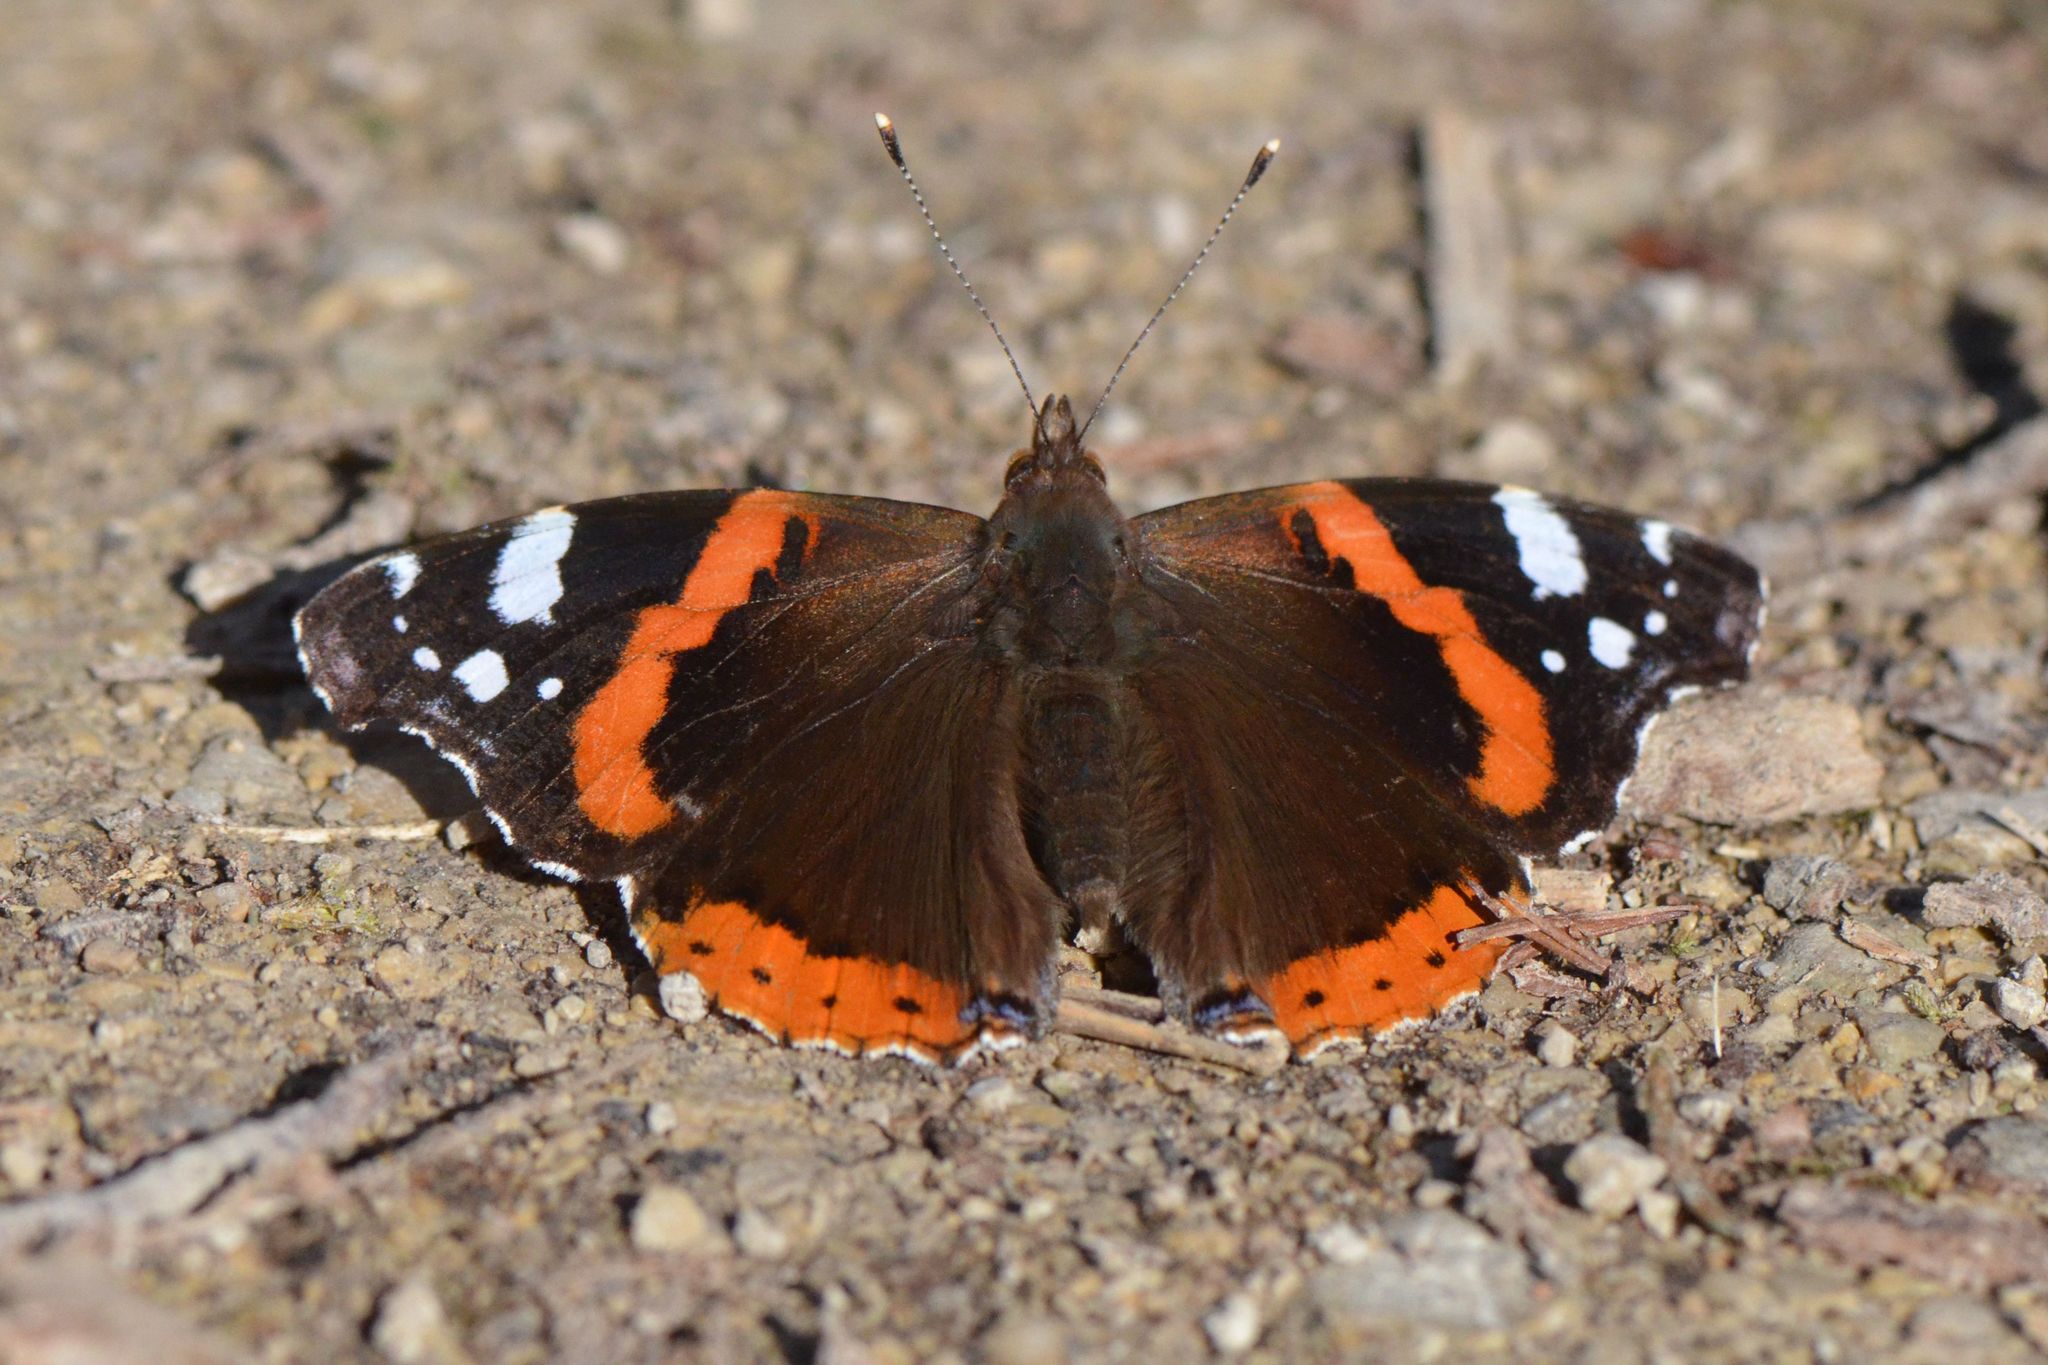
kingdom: Animalia
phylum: Arthropoda
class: Insecta
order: Lepidoptera
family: Nymphalidae
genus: Vanessa
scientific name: Vanessa atalanta
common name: Red admiral
